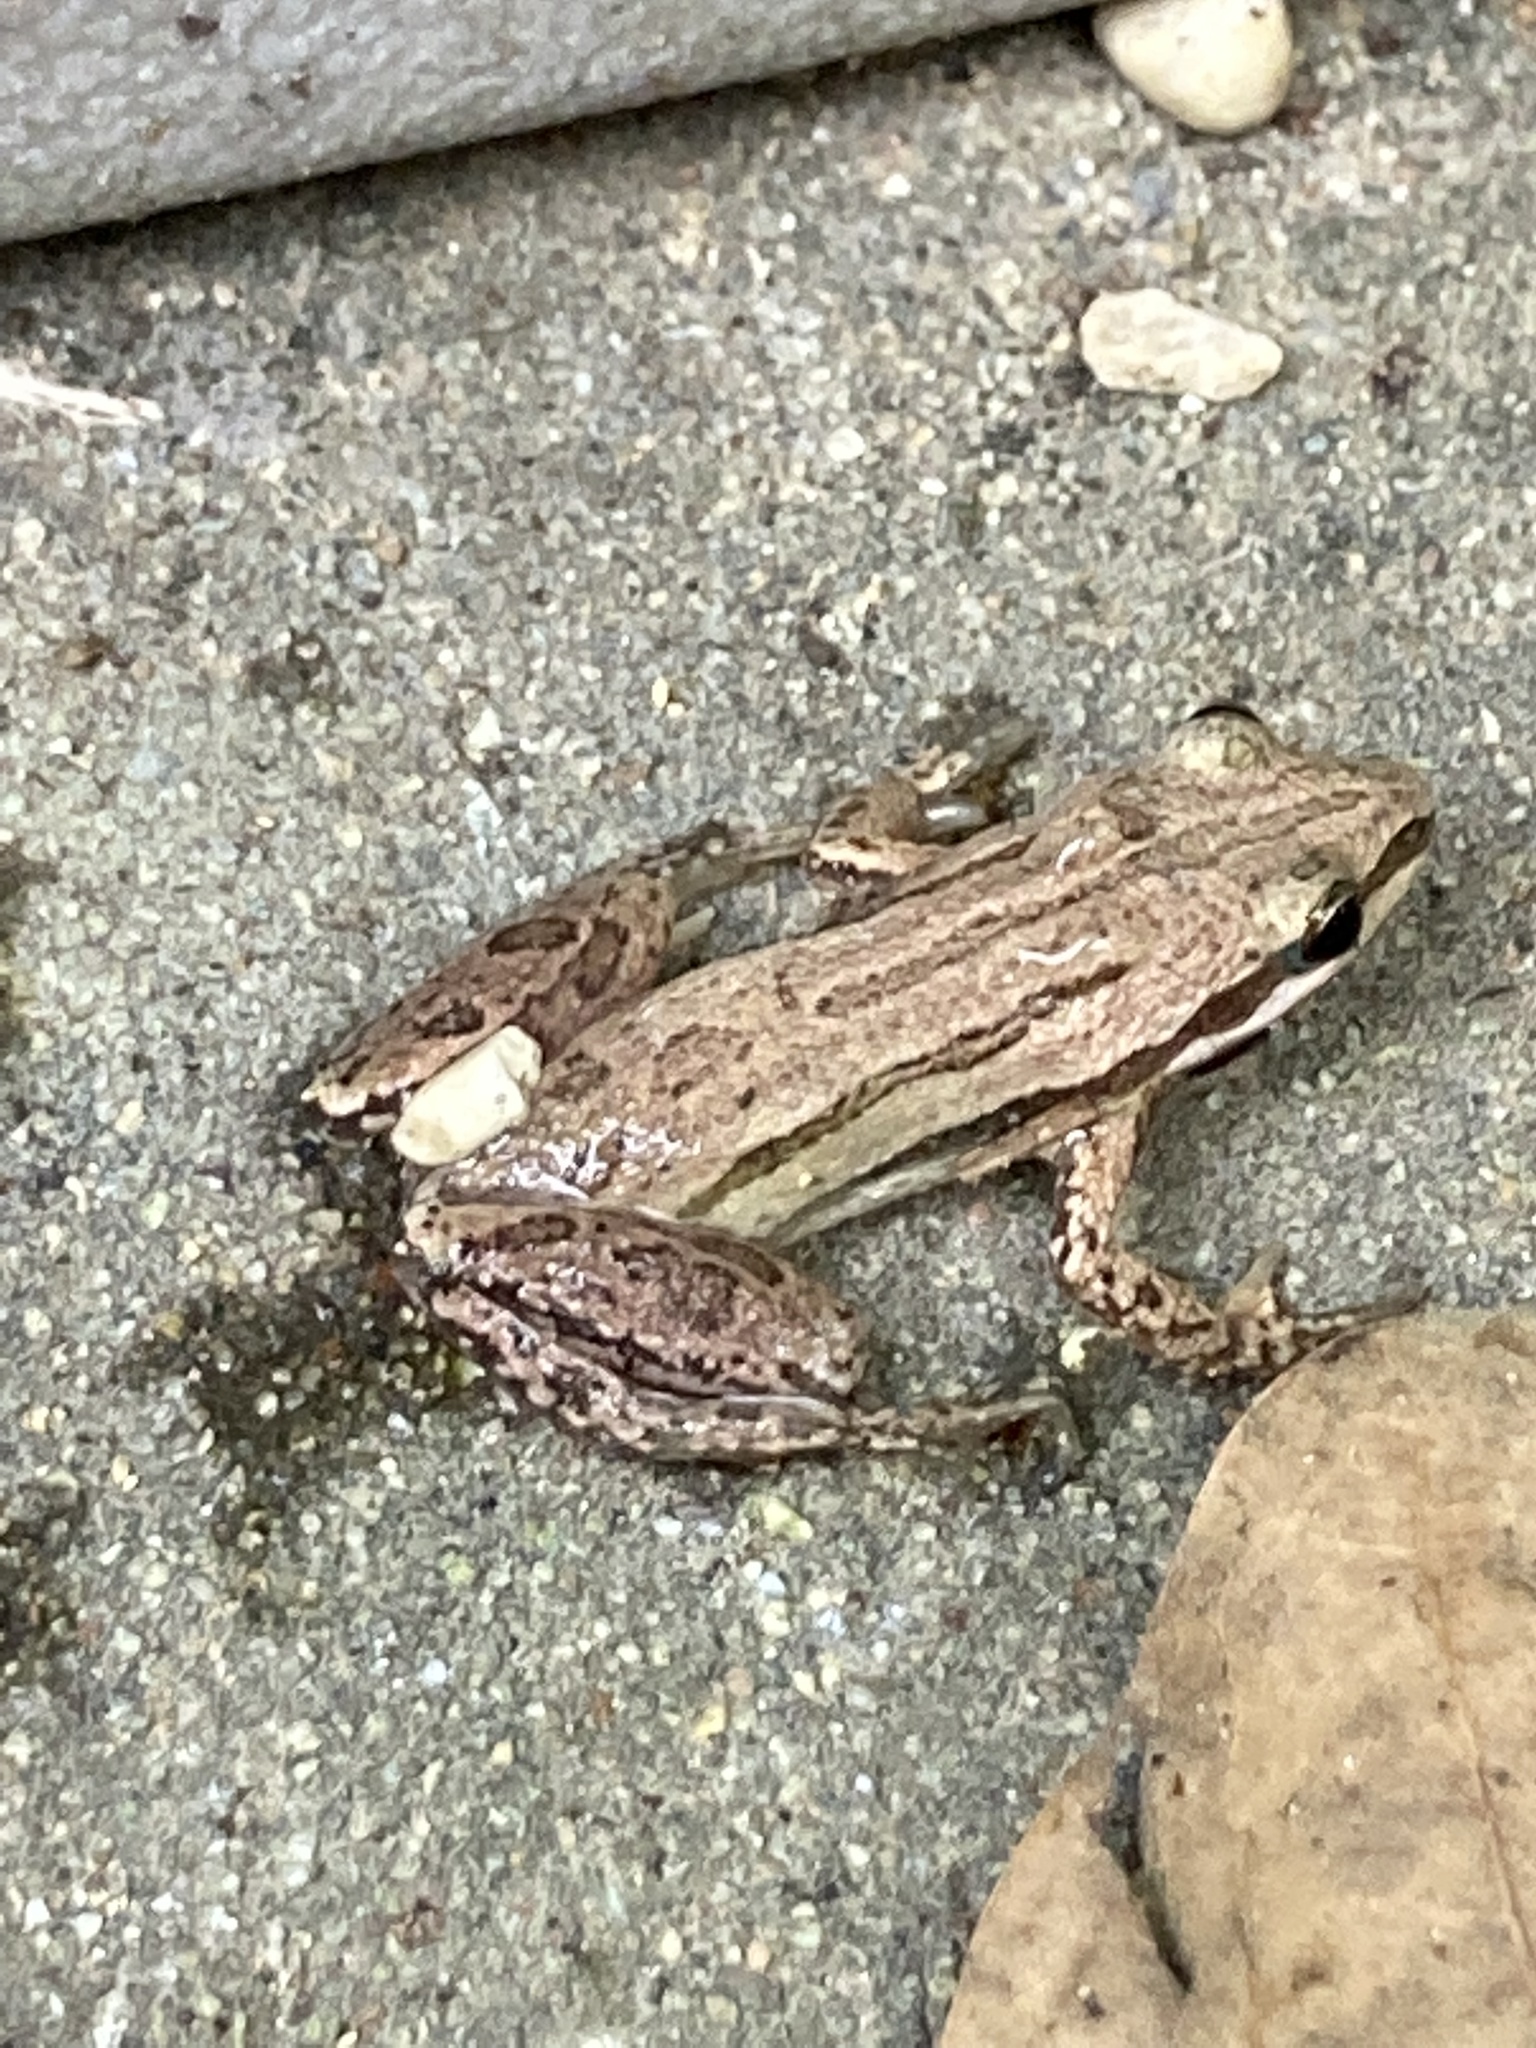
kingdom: Animalia
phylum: Chordata
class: Amphibia
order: Anura
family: Hylidae
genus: Pseudacris
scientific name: Pseudacris maculata
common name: Boreal chorus frog
